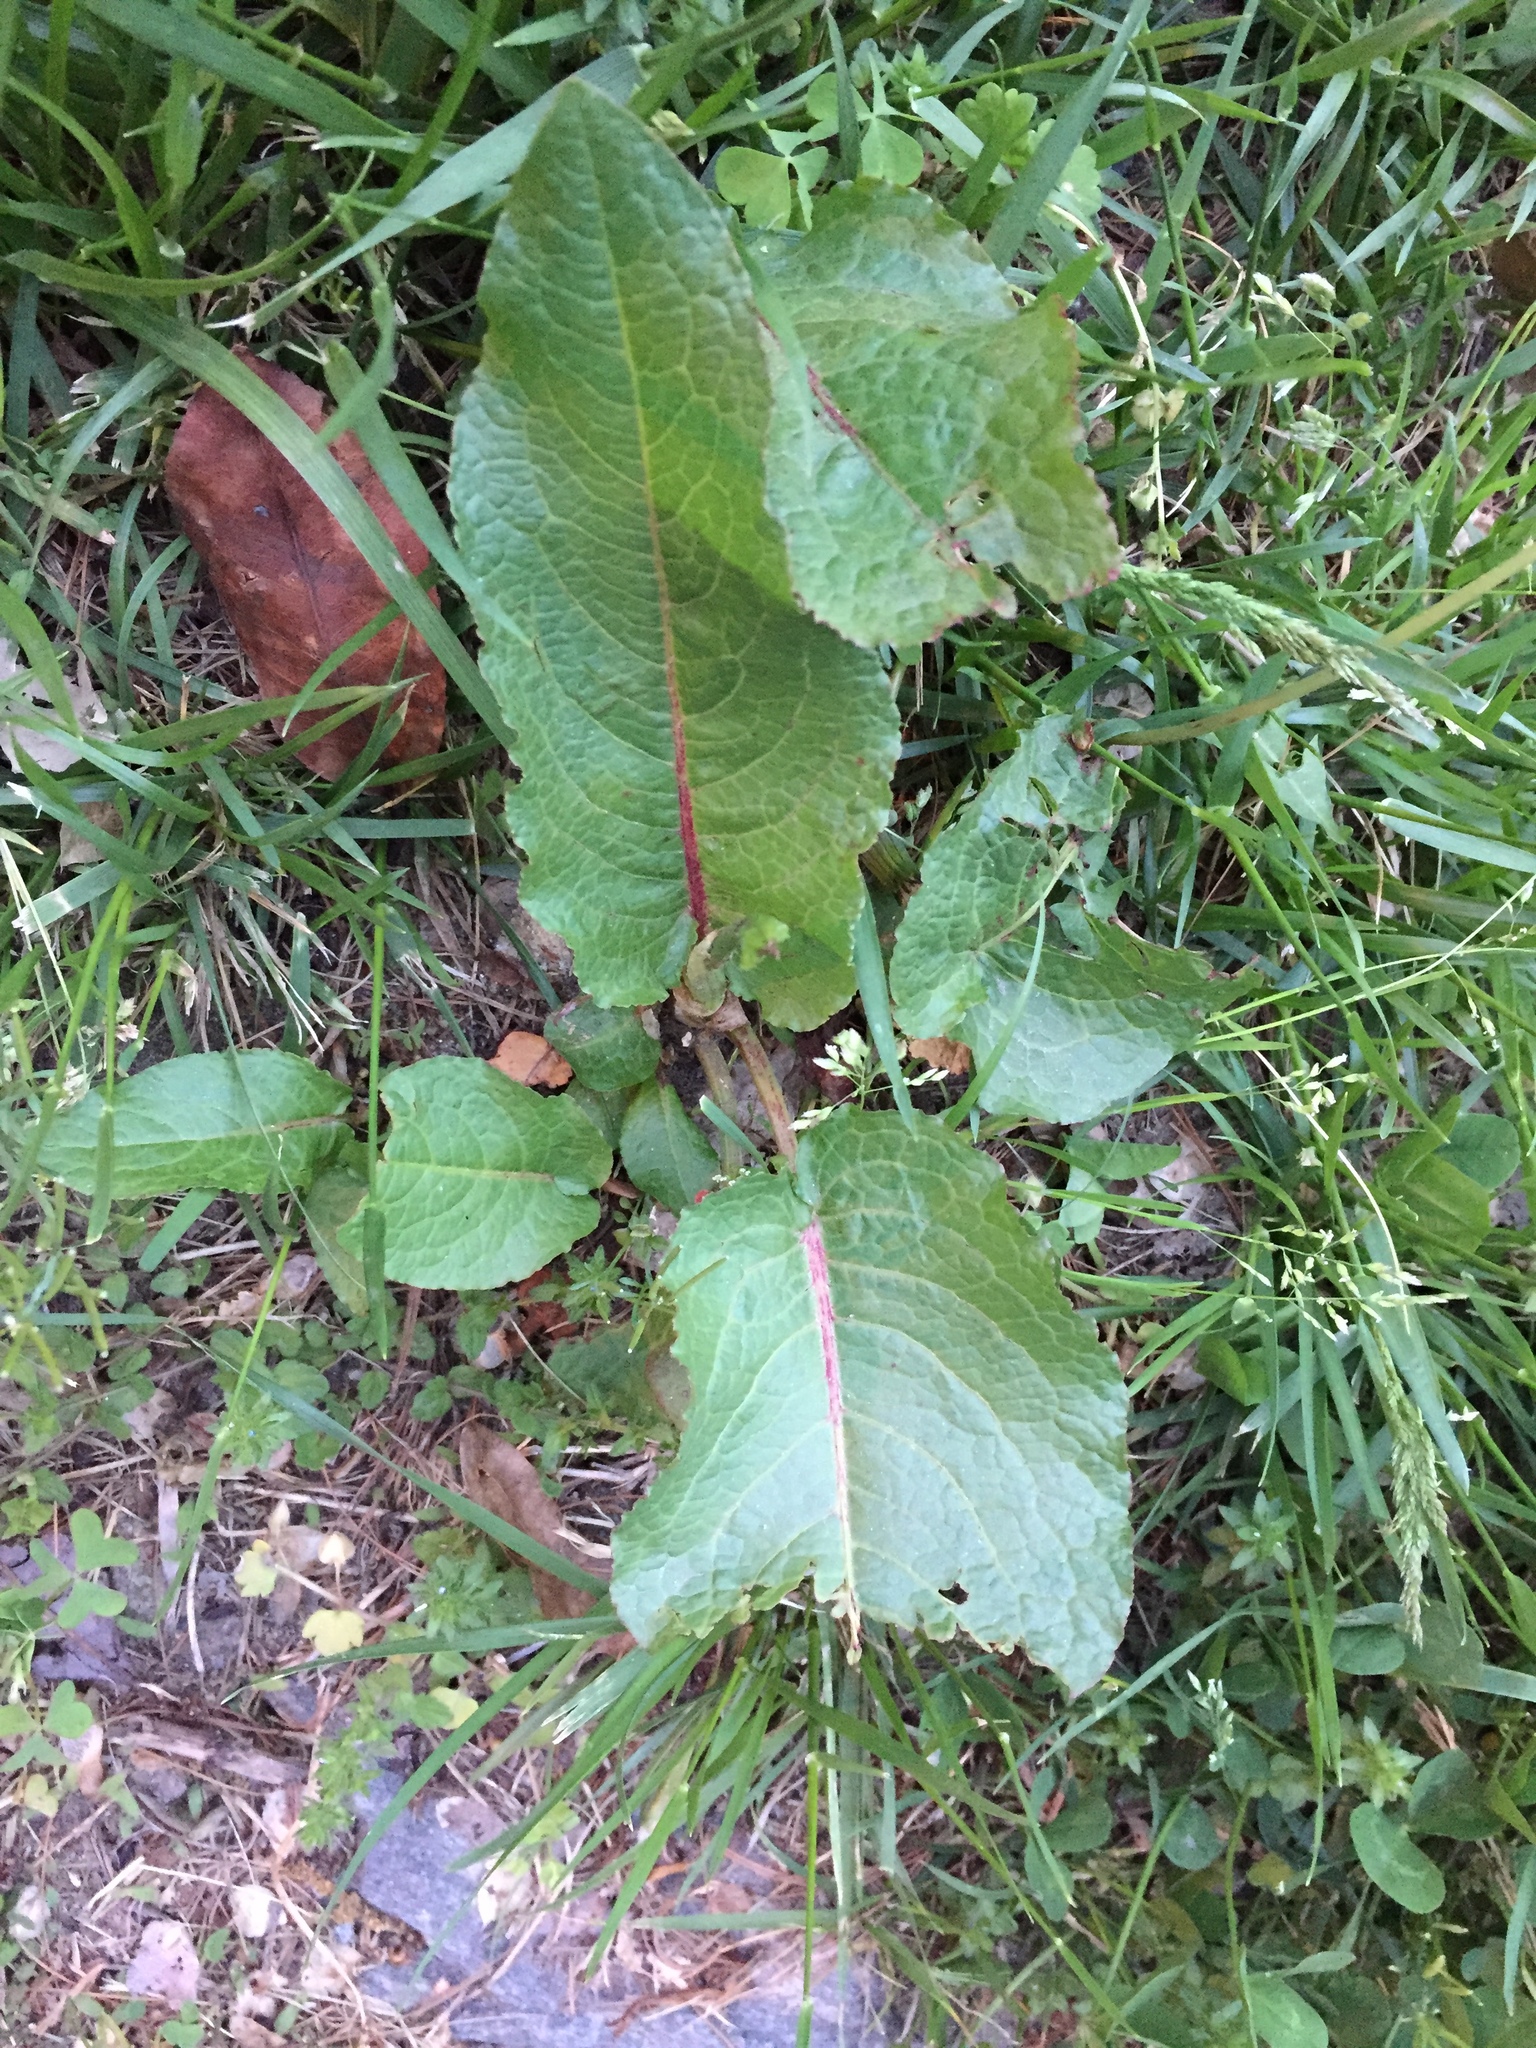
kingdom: Plantae
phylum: Tracheophyta
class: Magnoliopsida
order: Caryophyllales
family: Polygonaceae
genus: Rumex
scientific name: Rumex obtusifolius
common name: Bitter dock
